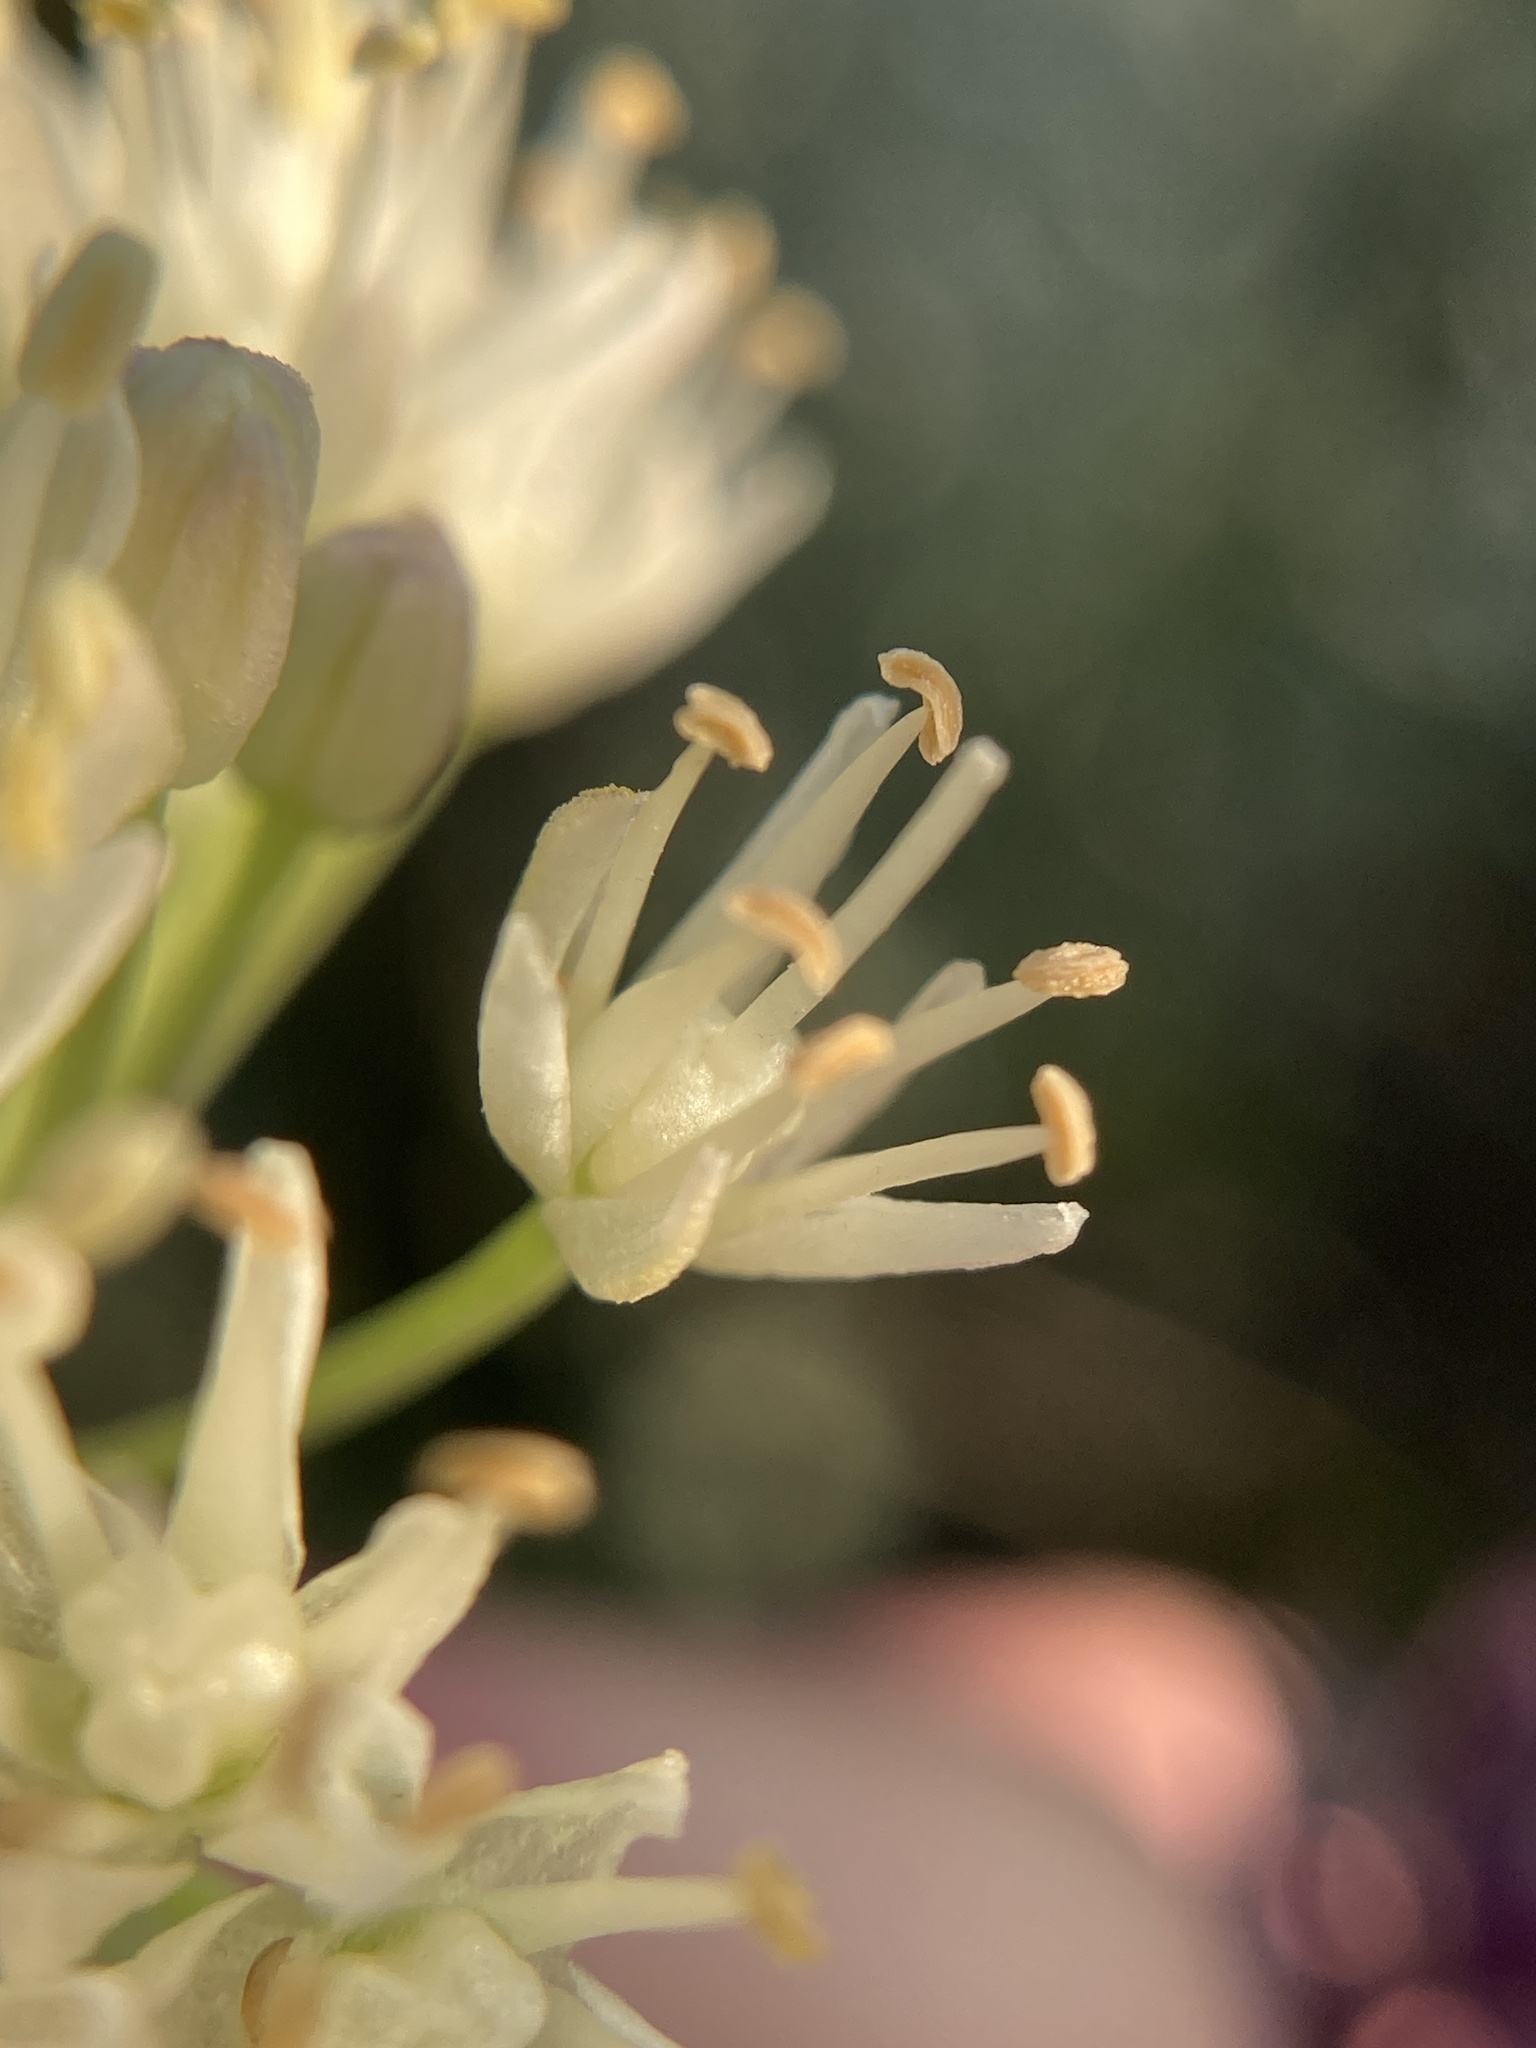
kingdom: Plantae
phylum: Tracheophyta
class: Liliopsida
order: Asparagales
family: Amaryllidaceae
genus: Allium
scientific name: Allium flavescens
